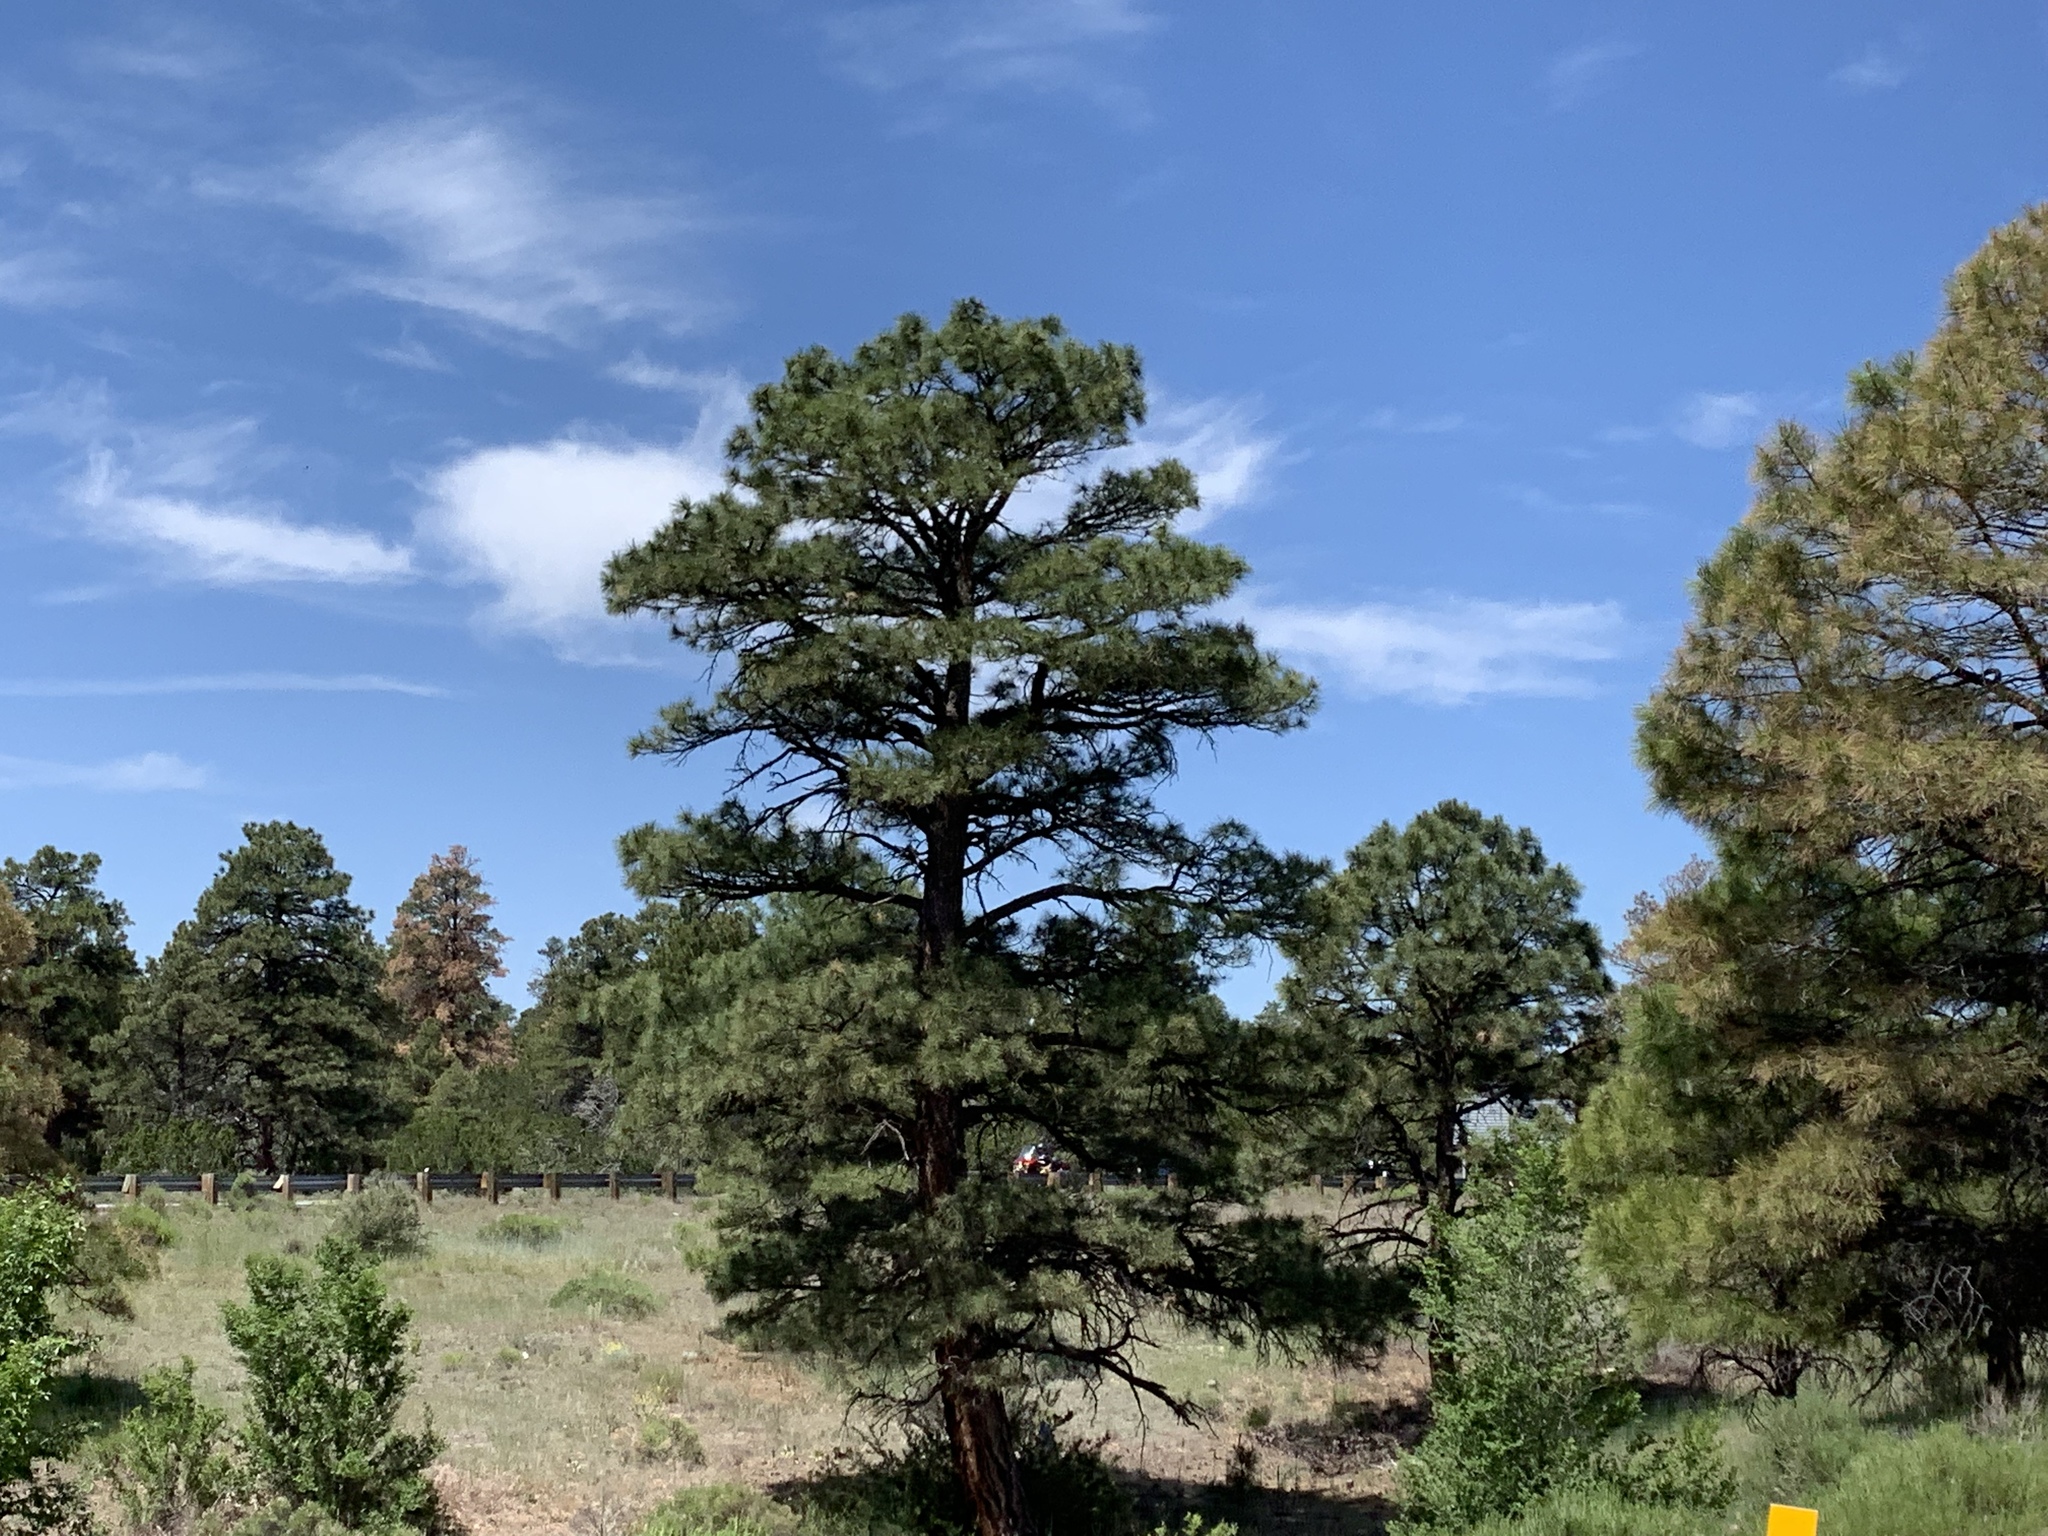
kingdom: Plantae
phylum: Tracheophyta
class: Pinopsida
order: Pinales
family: Pinaceae
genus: Pinus
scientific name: Pinus ponderosa
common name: Western yellow-pine
